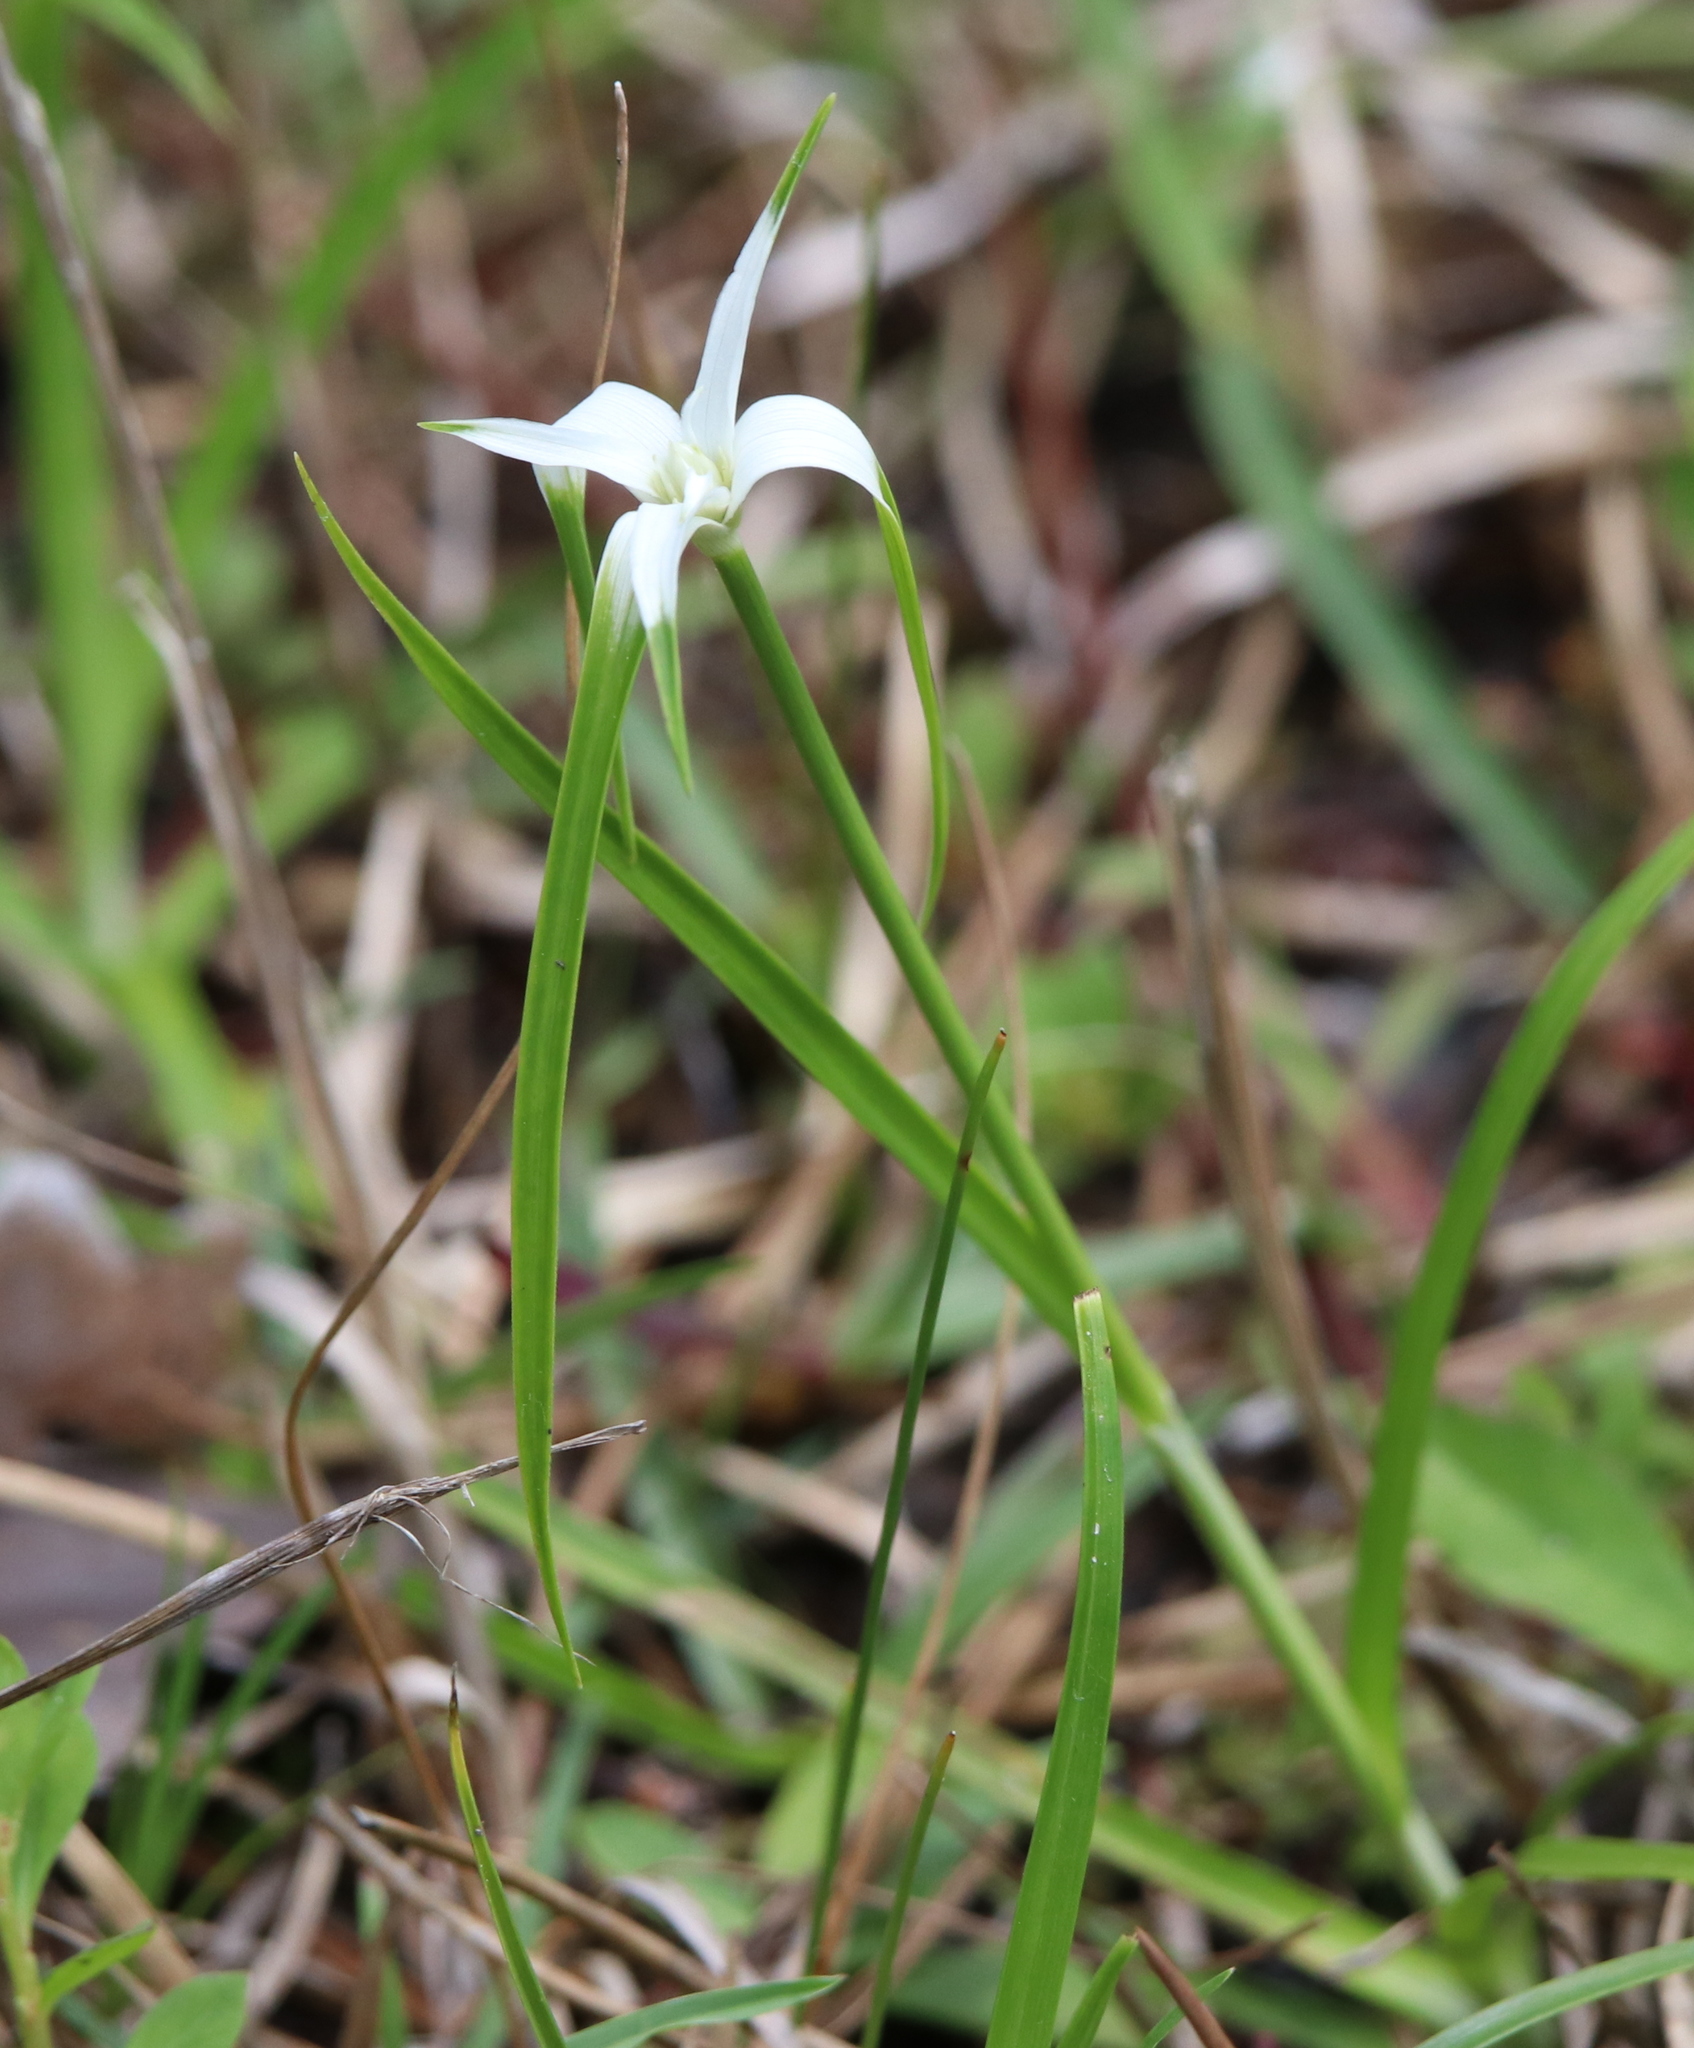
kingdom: Plantae
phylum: Tracheophyta
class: Liliopsida
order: Poales
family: Cyperaceae
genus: Rhynchospora
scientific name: Rhynchospora colorata
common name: Star sedge
